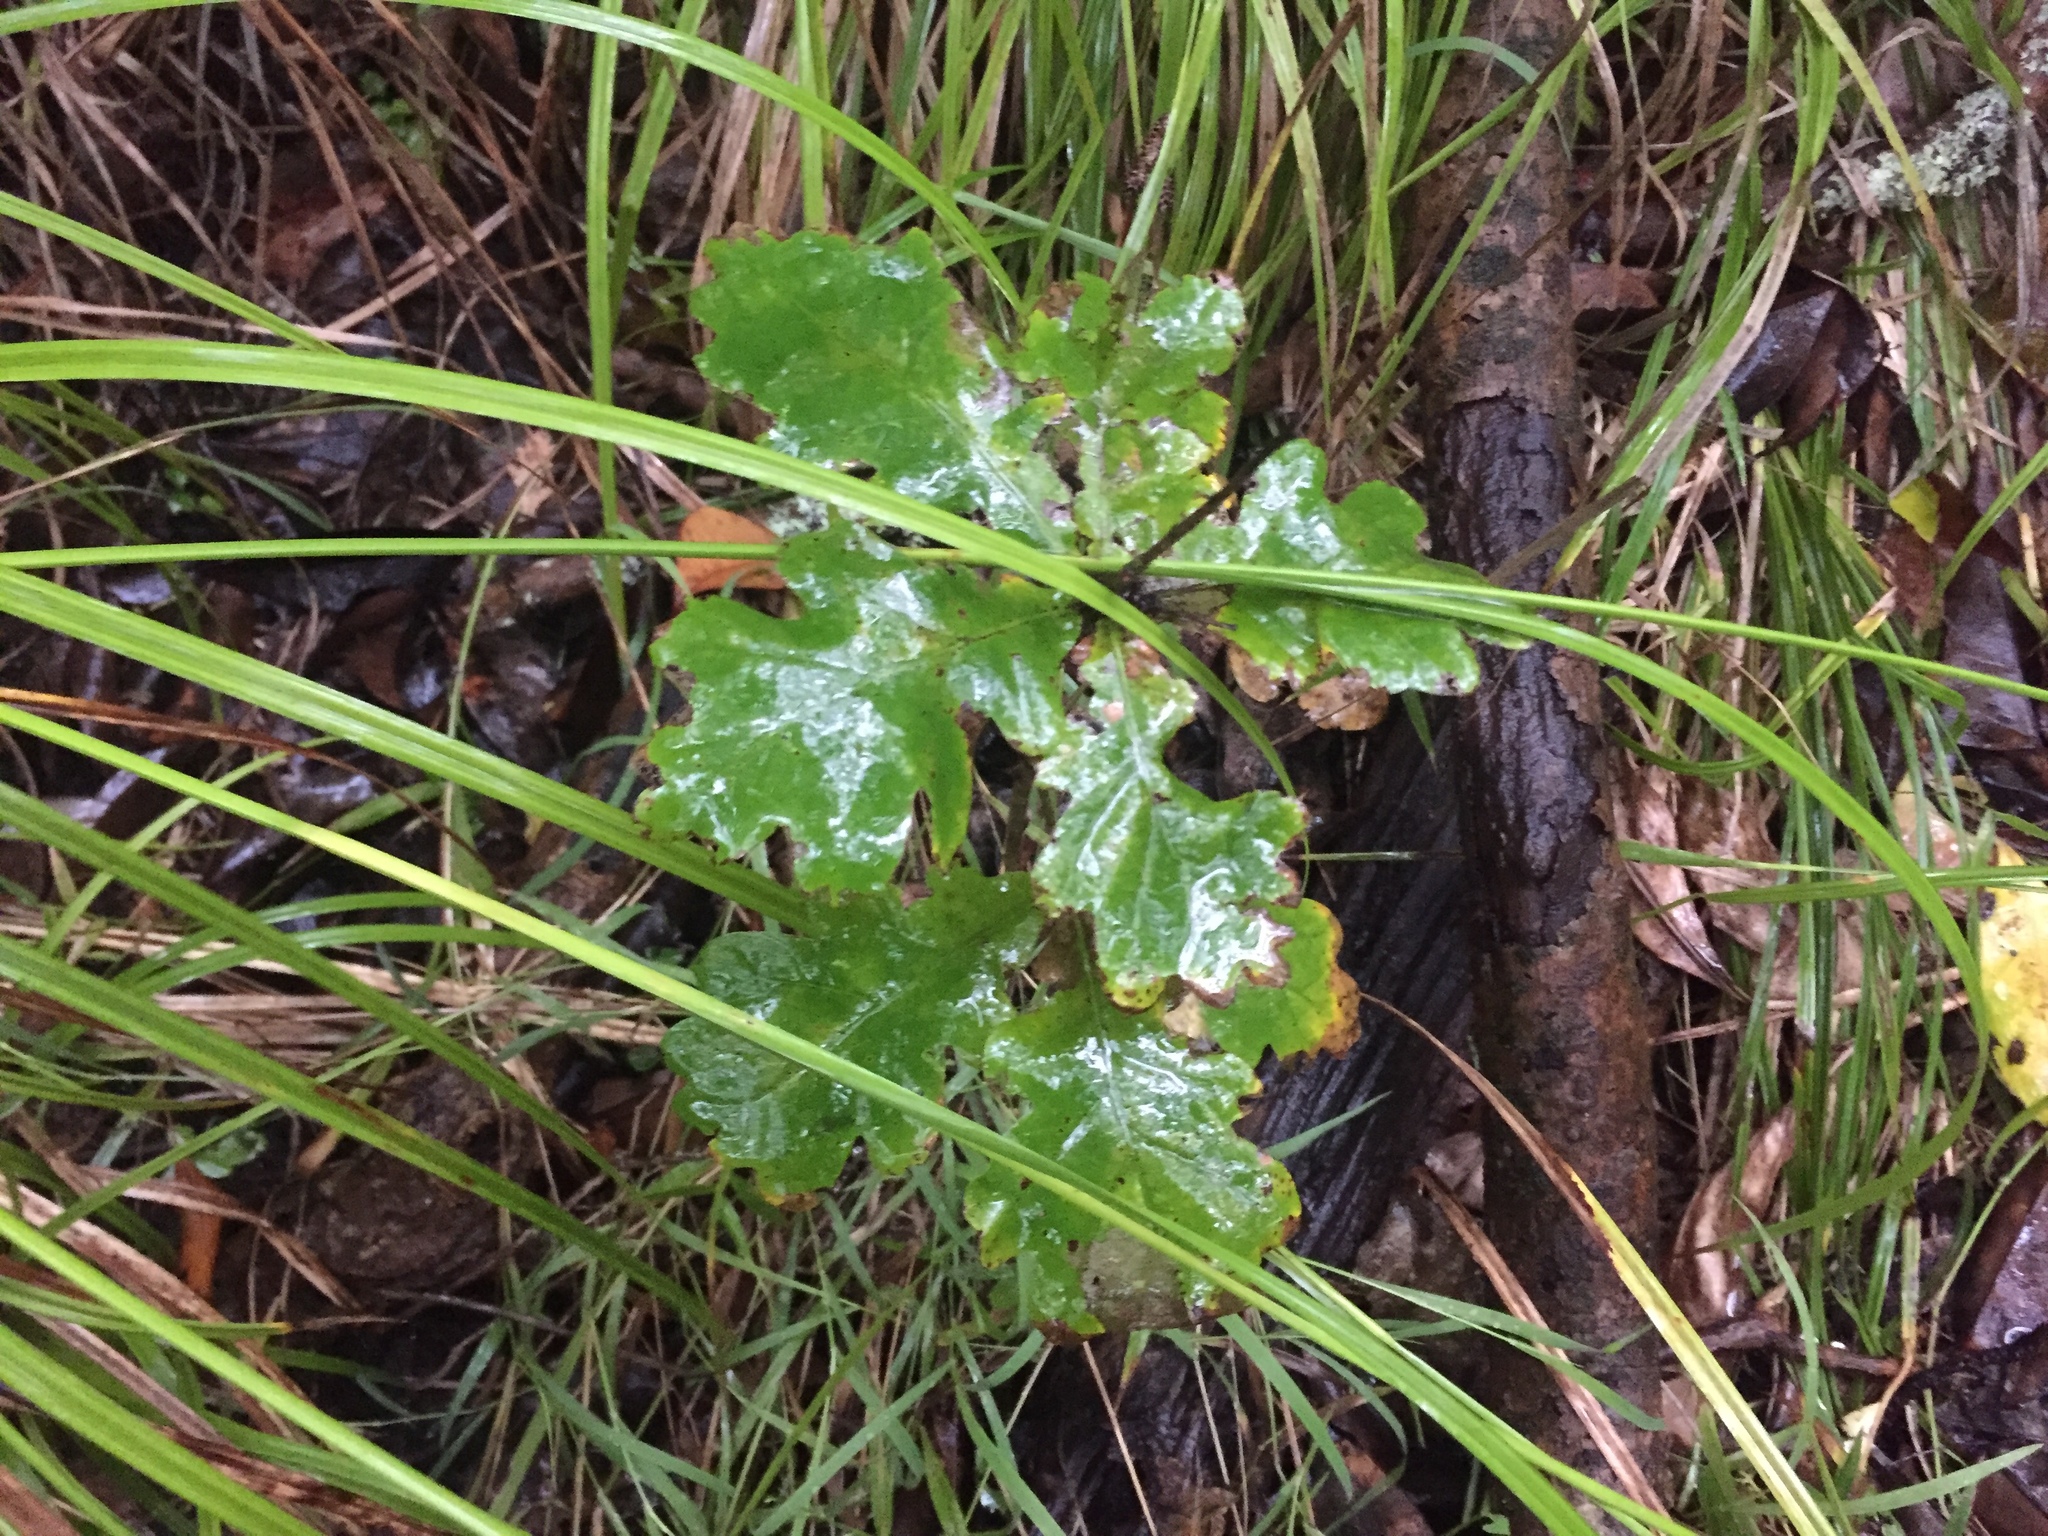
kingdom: Plantae
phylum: Tracheophyta
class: Magnoliopsida
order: Fagales
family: Fagaceae
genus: Quercus
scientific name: Quercus robur
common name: Pedunculate oak
